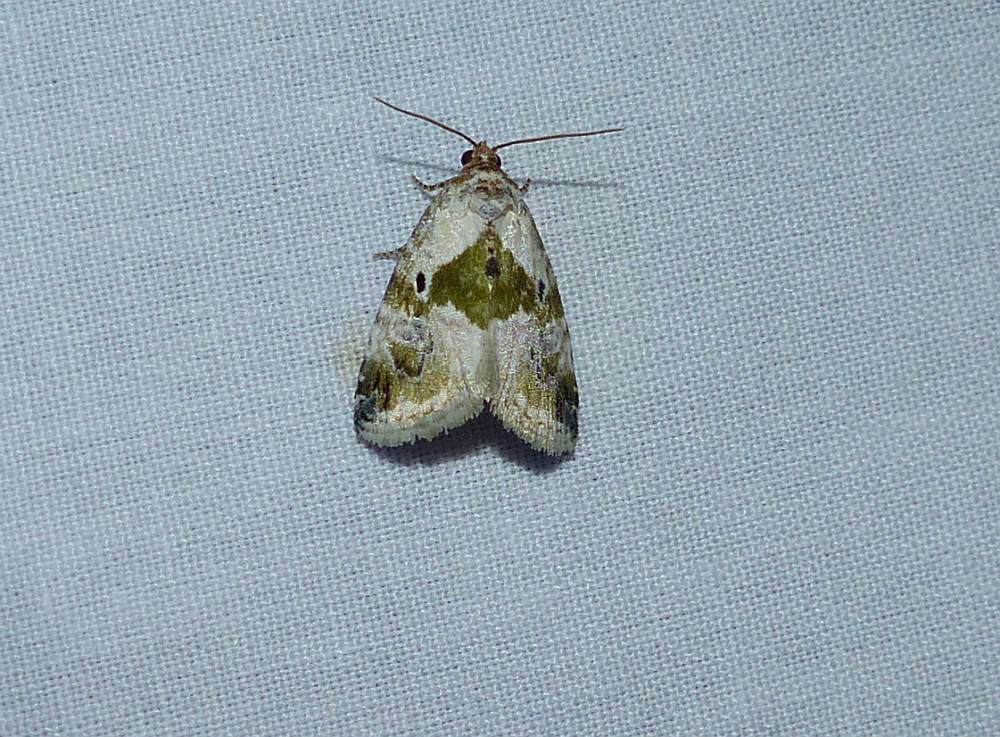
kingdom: Animalia
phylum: Arthropoda
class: Insecta
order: Lepidoptera
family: Noctuidae
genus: Maliattha
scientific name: Maliattha synochitis
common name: Black-dotted glyph
